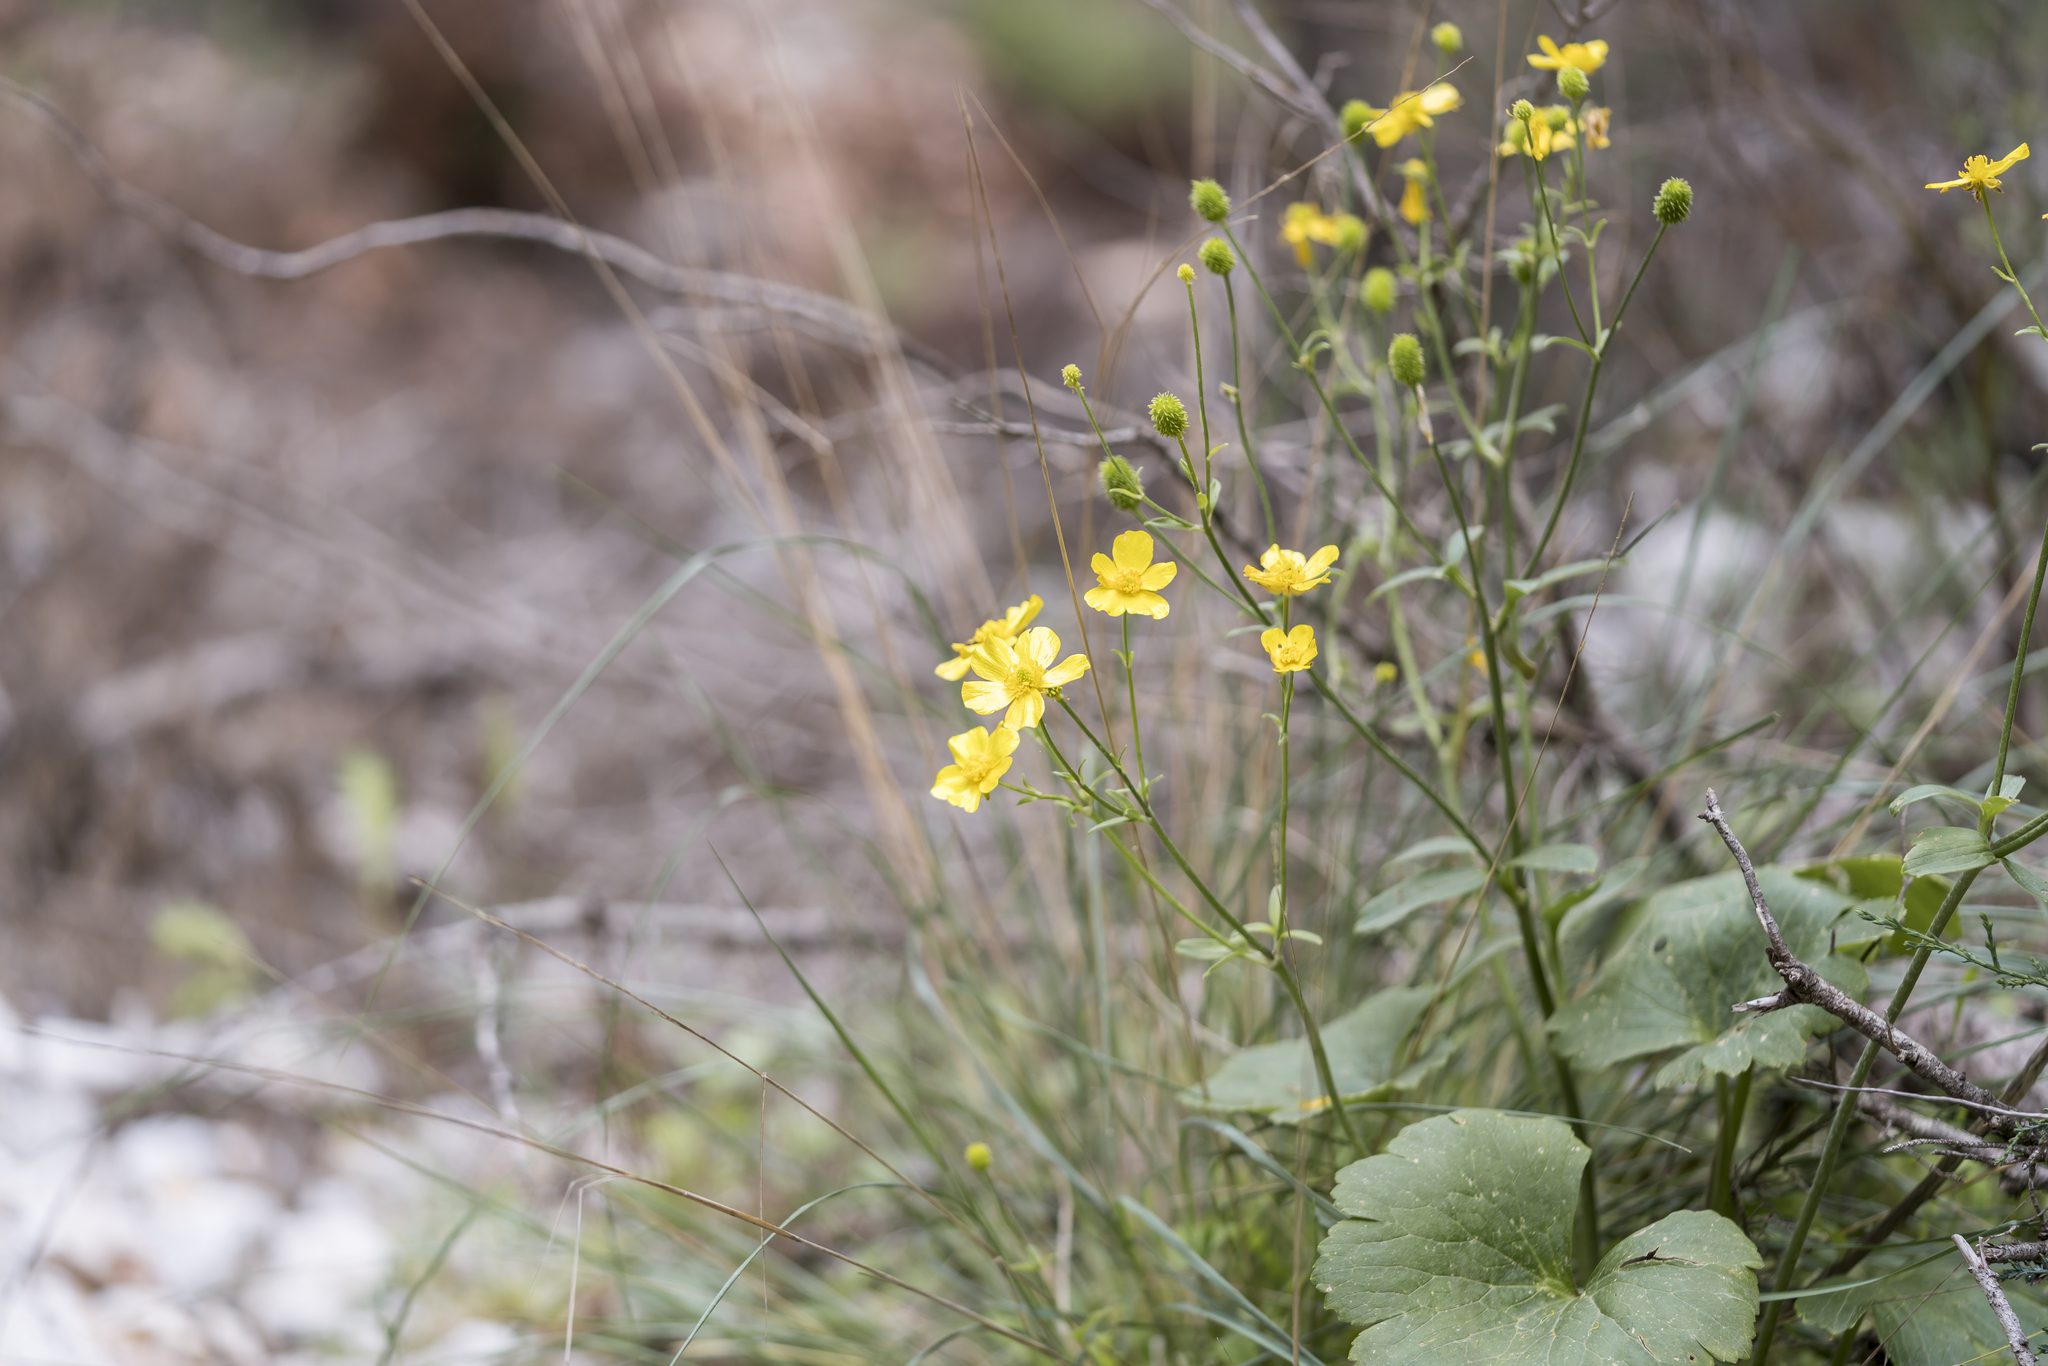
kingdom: Plantae
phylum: Tracheophyta
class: Magnoliopsida
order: Ranunculales
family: Ranunculaceae
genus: Ranunculus
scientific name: Ranunculus creticus
